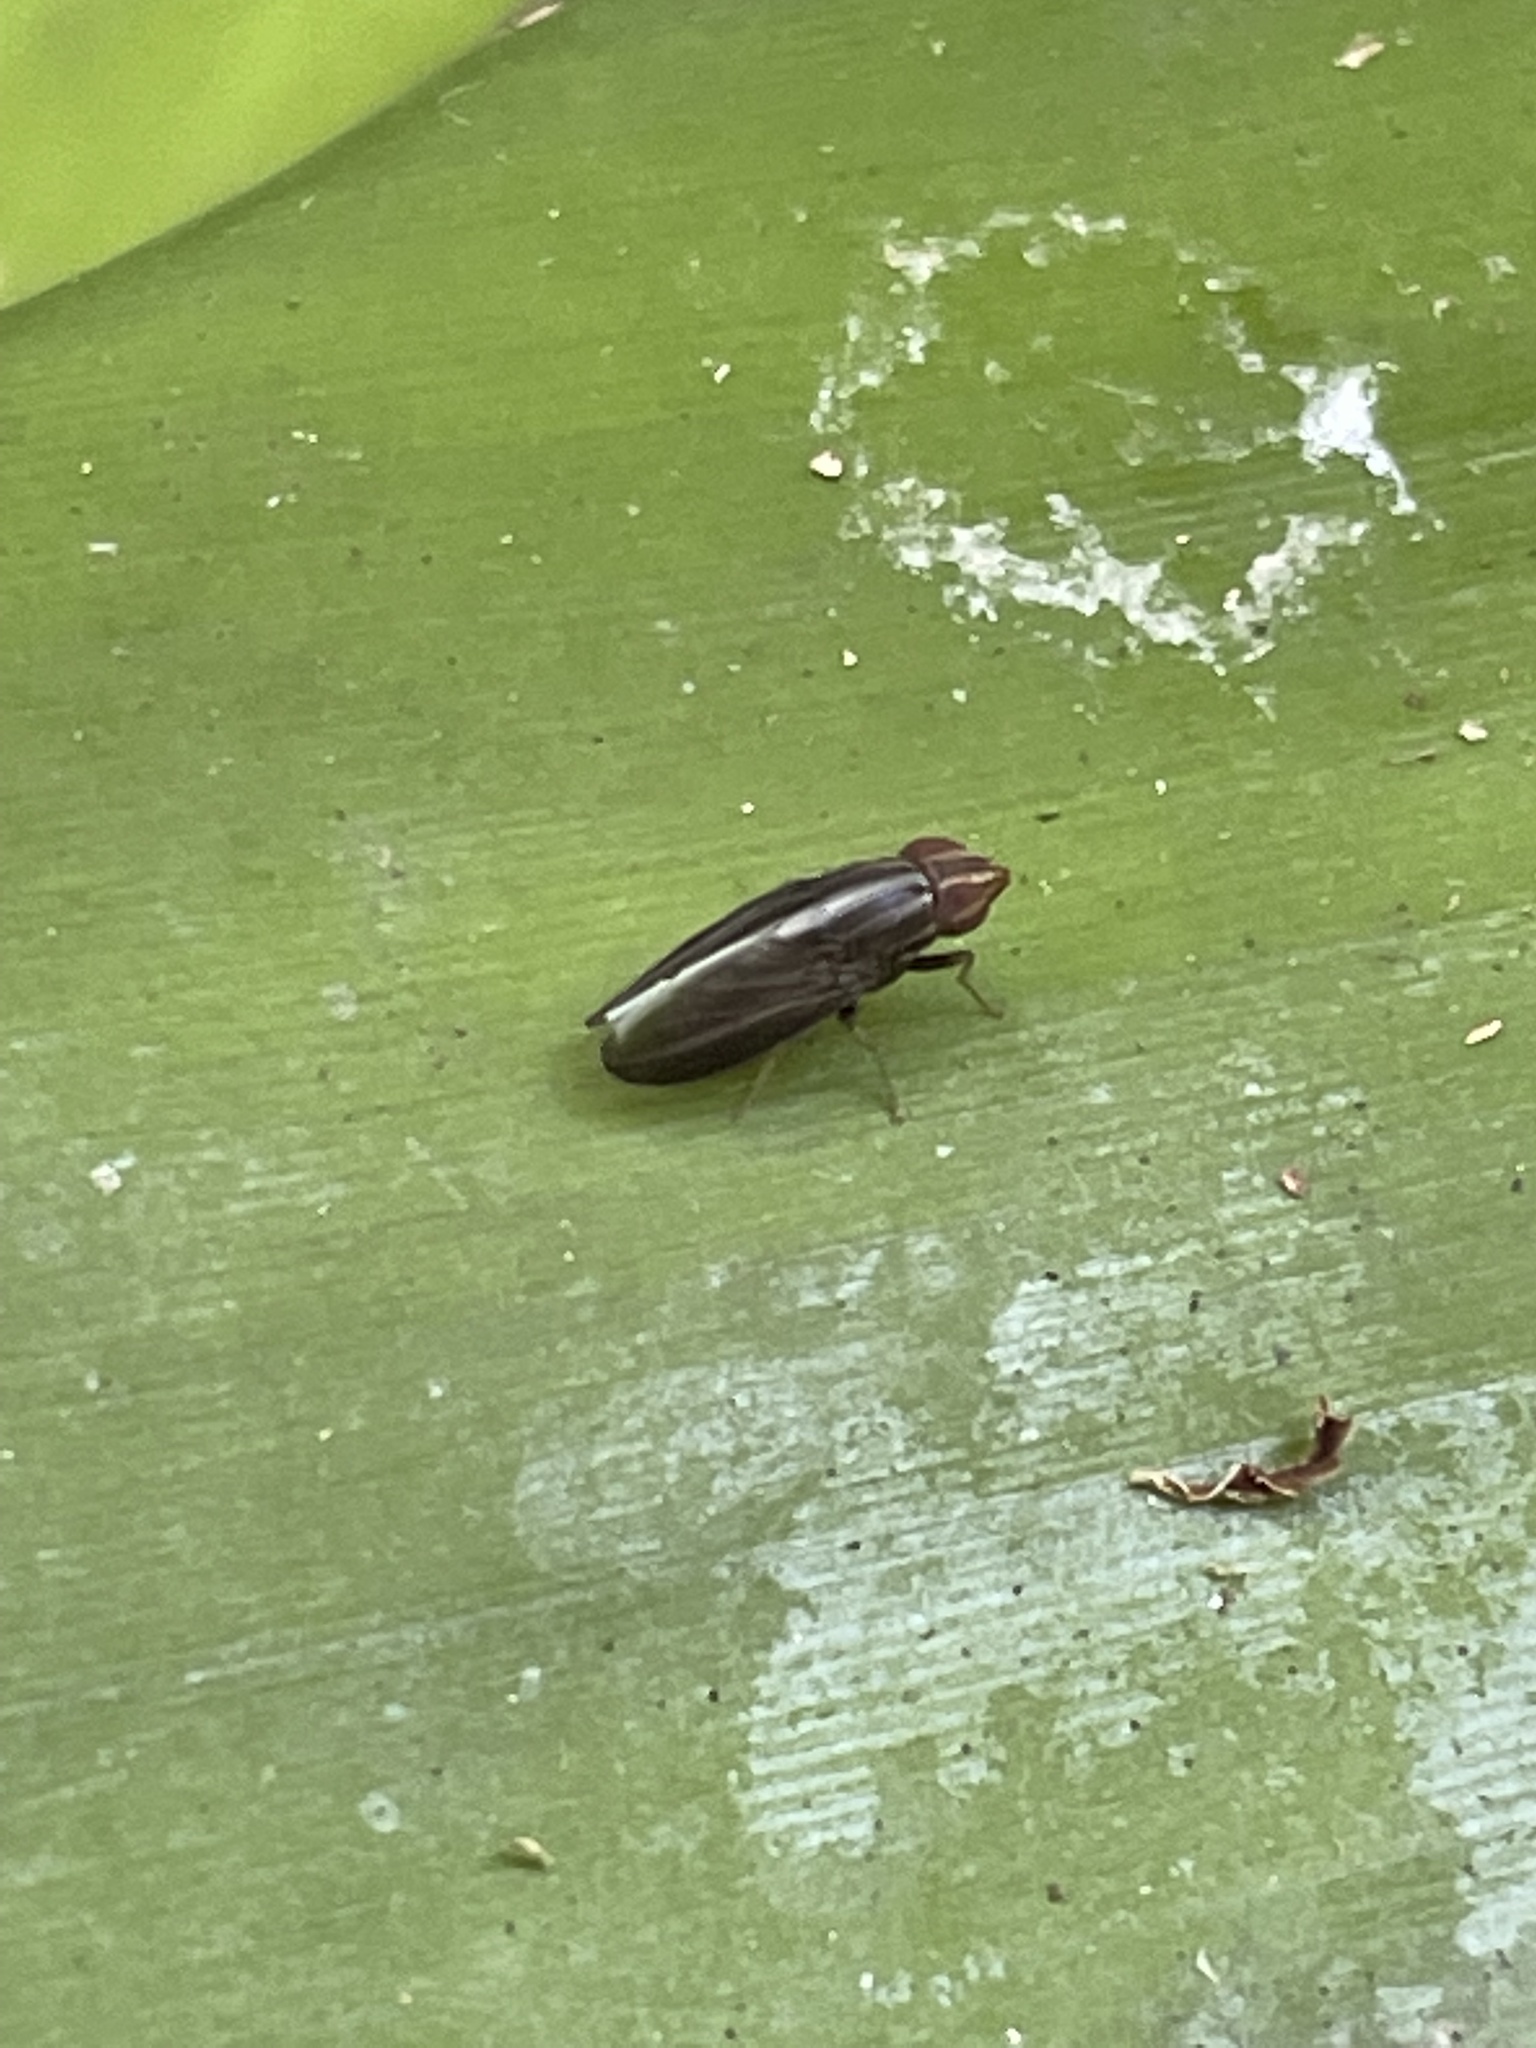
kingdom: Animalia
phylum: Arthropoda
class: Insecta
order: Diptera
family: Lauxaniidae
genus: Cephaloconus
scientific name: Cephaloconus cyprinus
